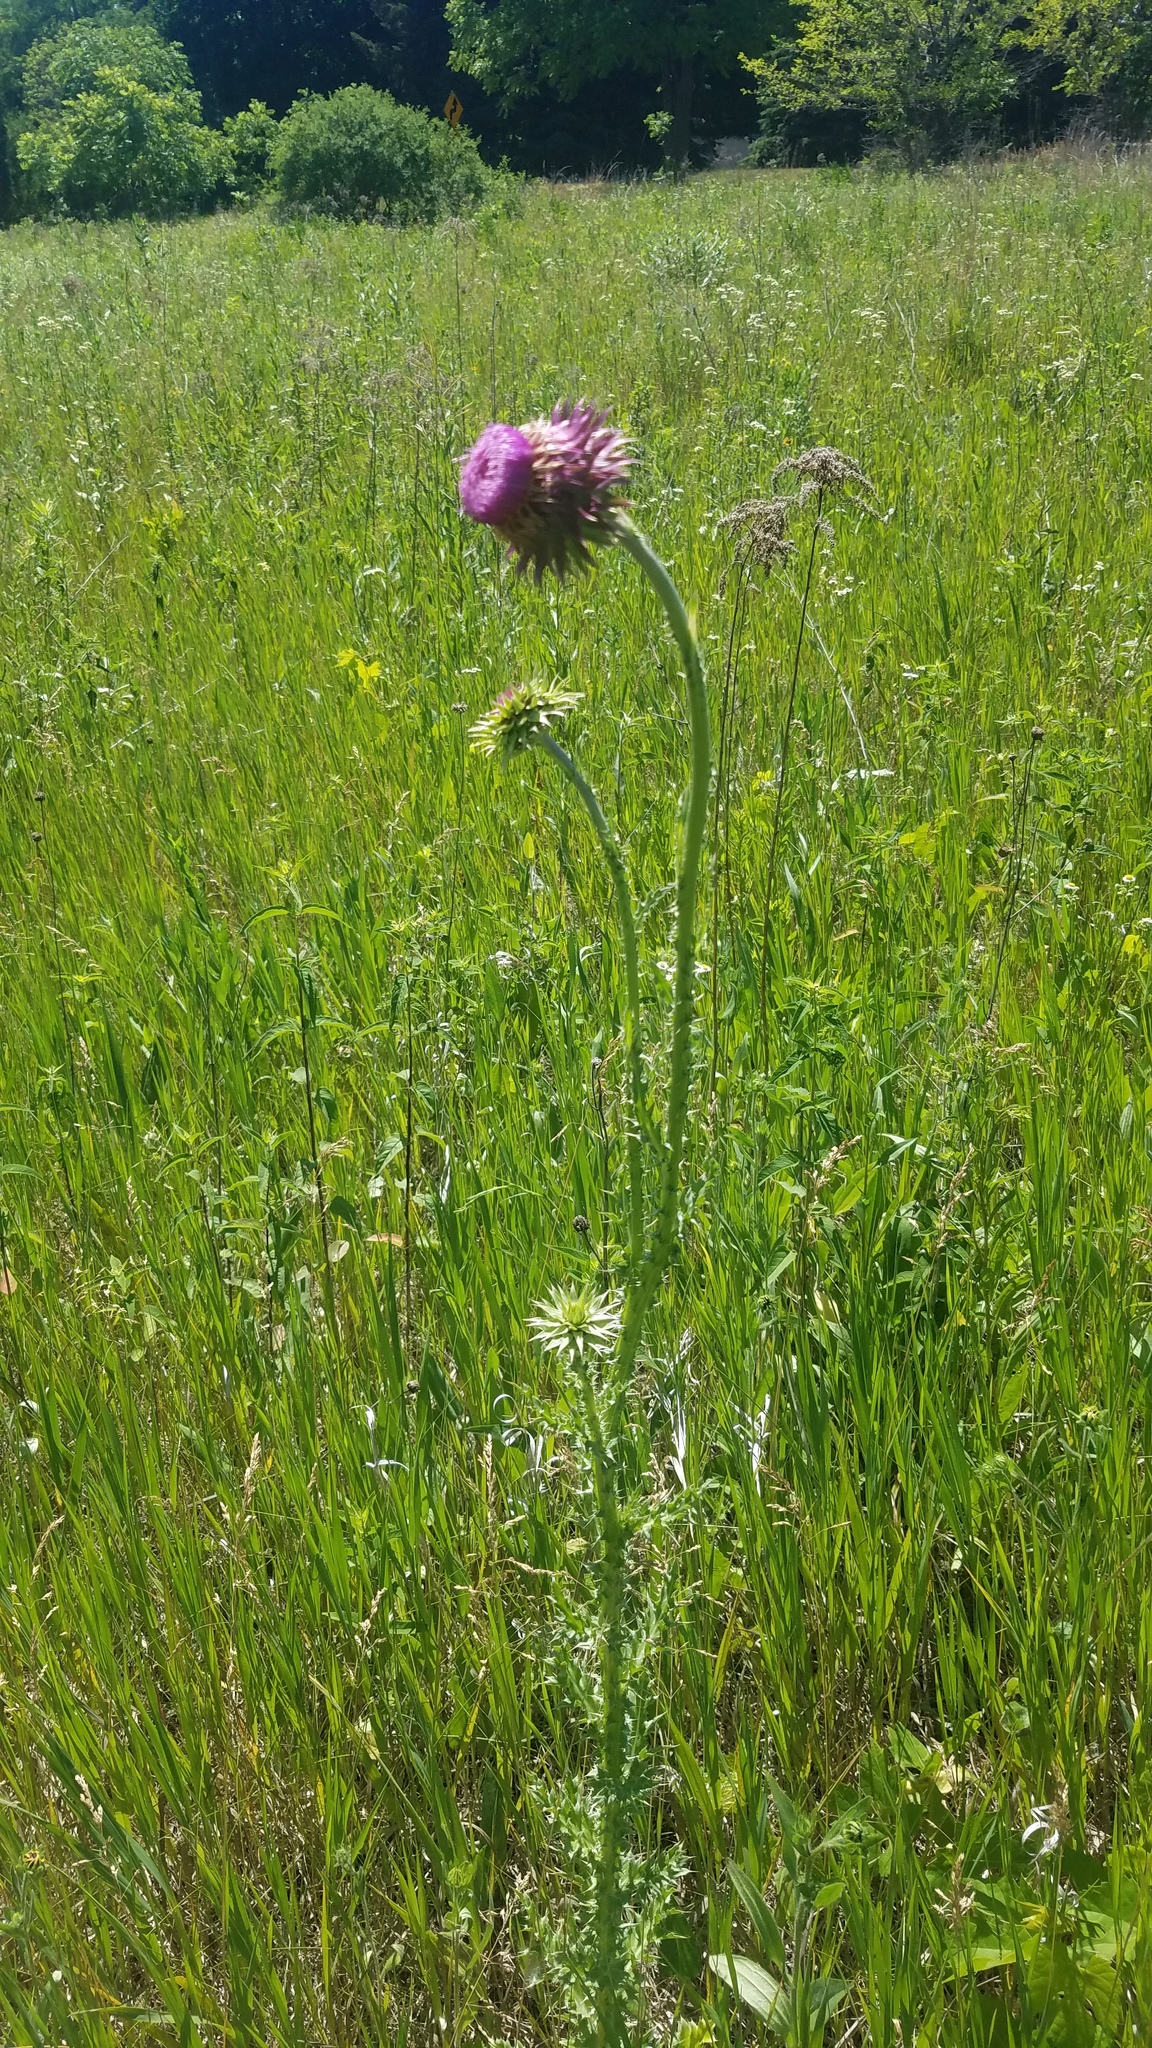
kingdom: Plantae
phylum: Tracheophyta
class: Magnoliopsida
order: Asterales
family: Asteraceae
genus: Carduus
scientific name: Carduus nutans
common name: Musk thistle
